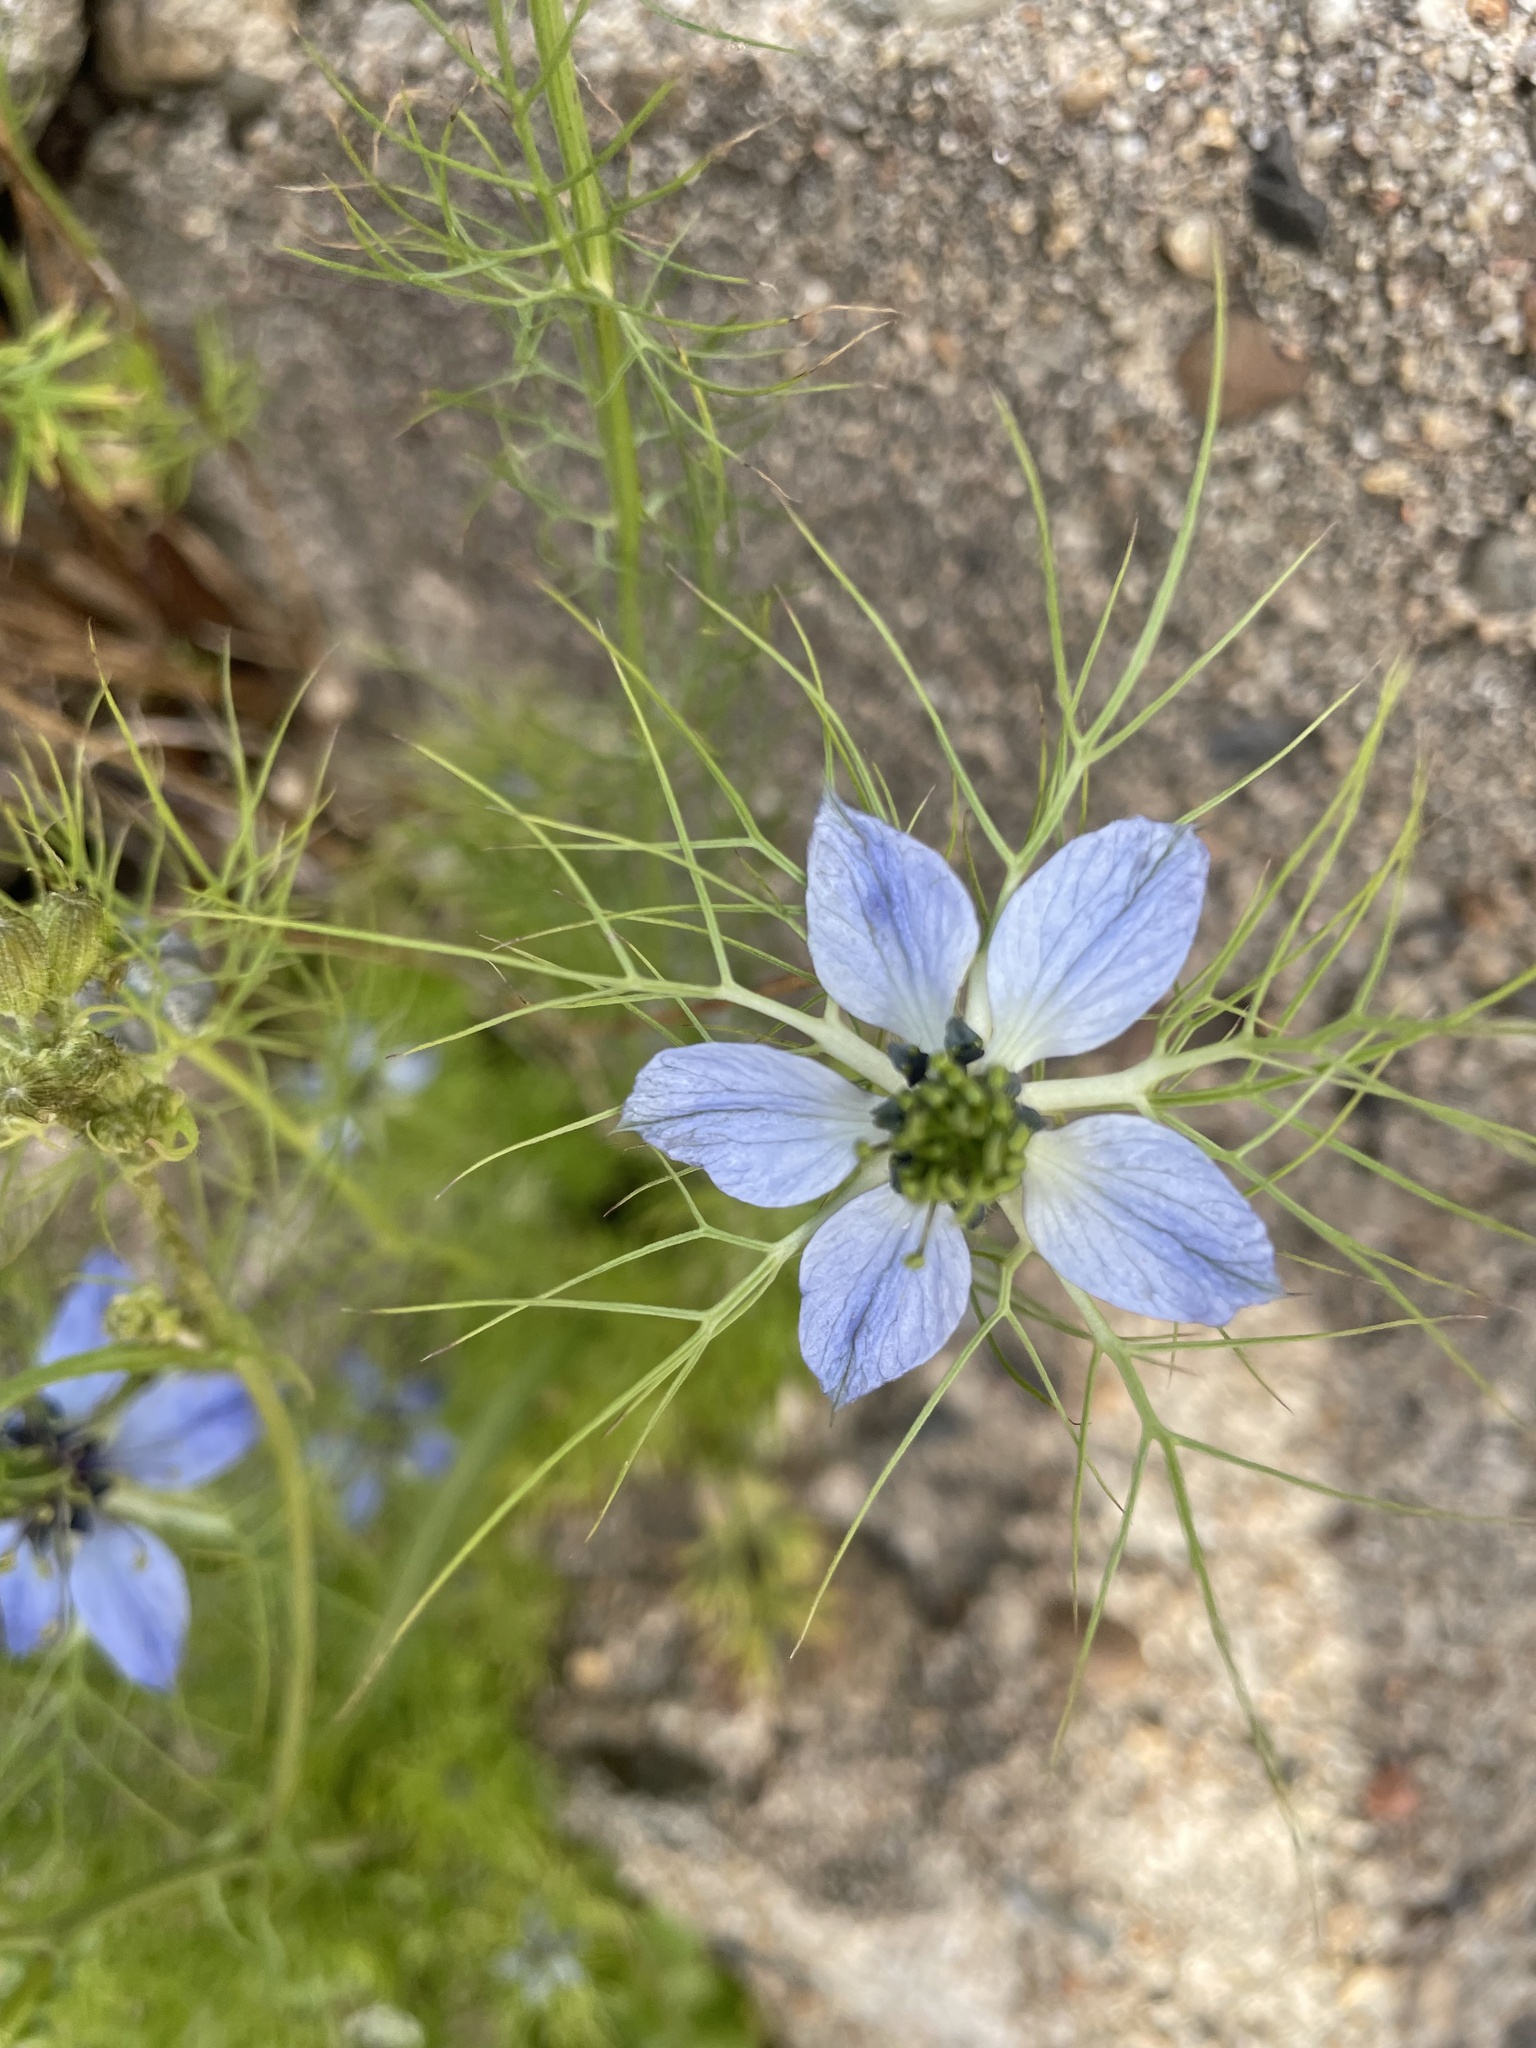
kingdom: Plantae
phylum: Tracheophyta
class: Magnoliopsida
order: Ranunculales
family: Ranunculaceae
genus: Nigella
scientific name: Nigella damascena
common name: Love-in-a-mist
